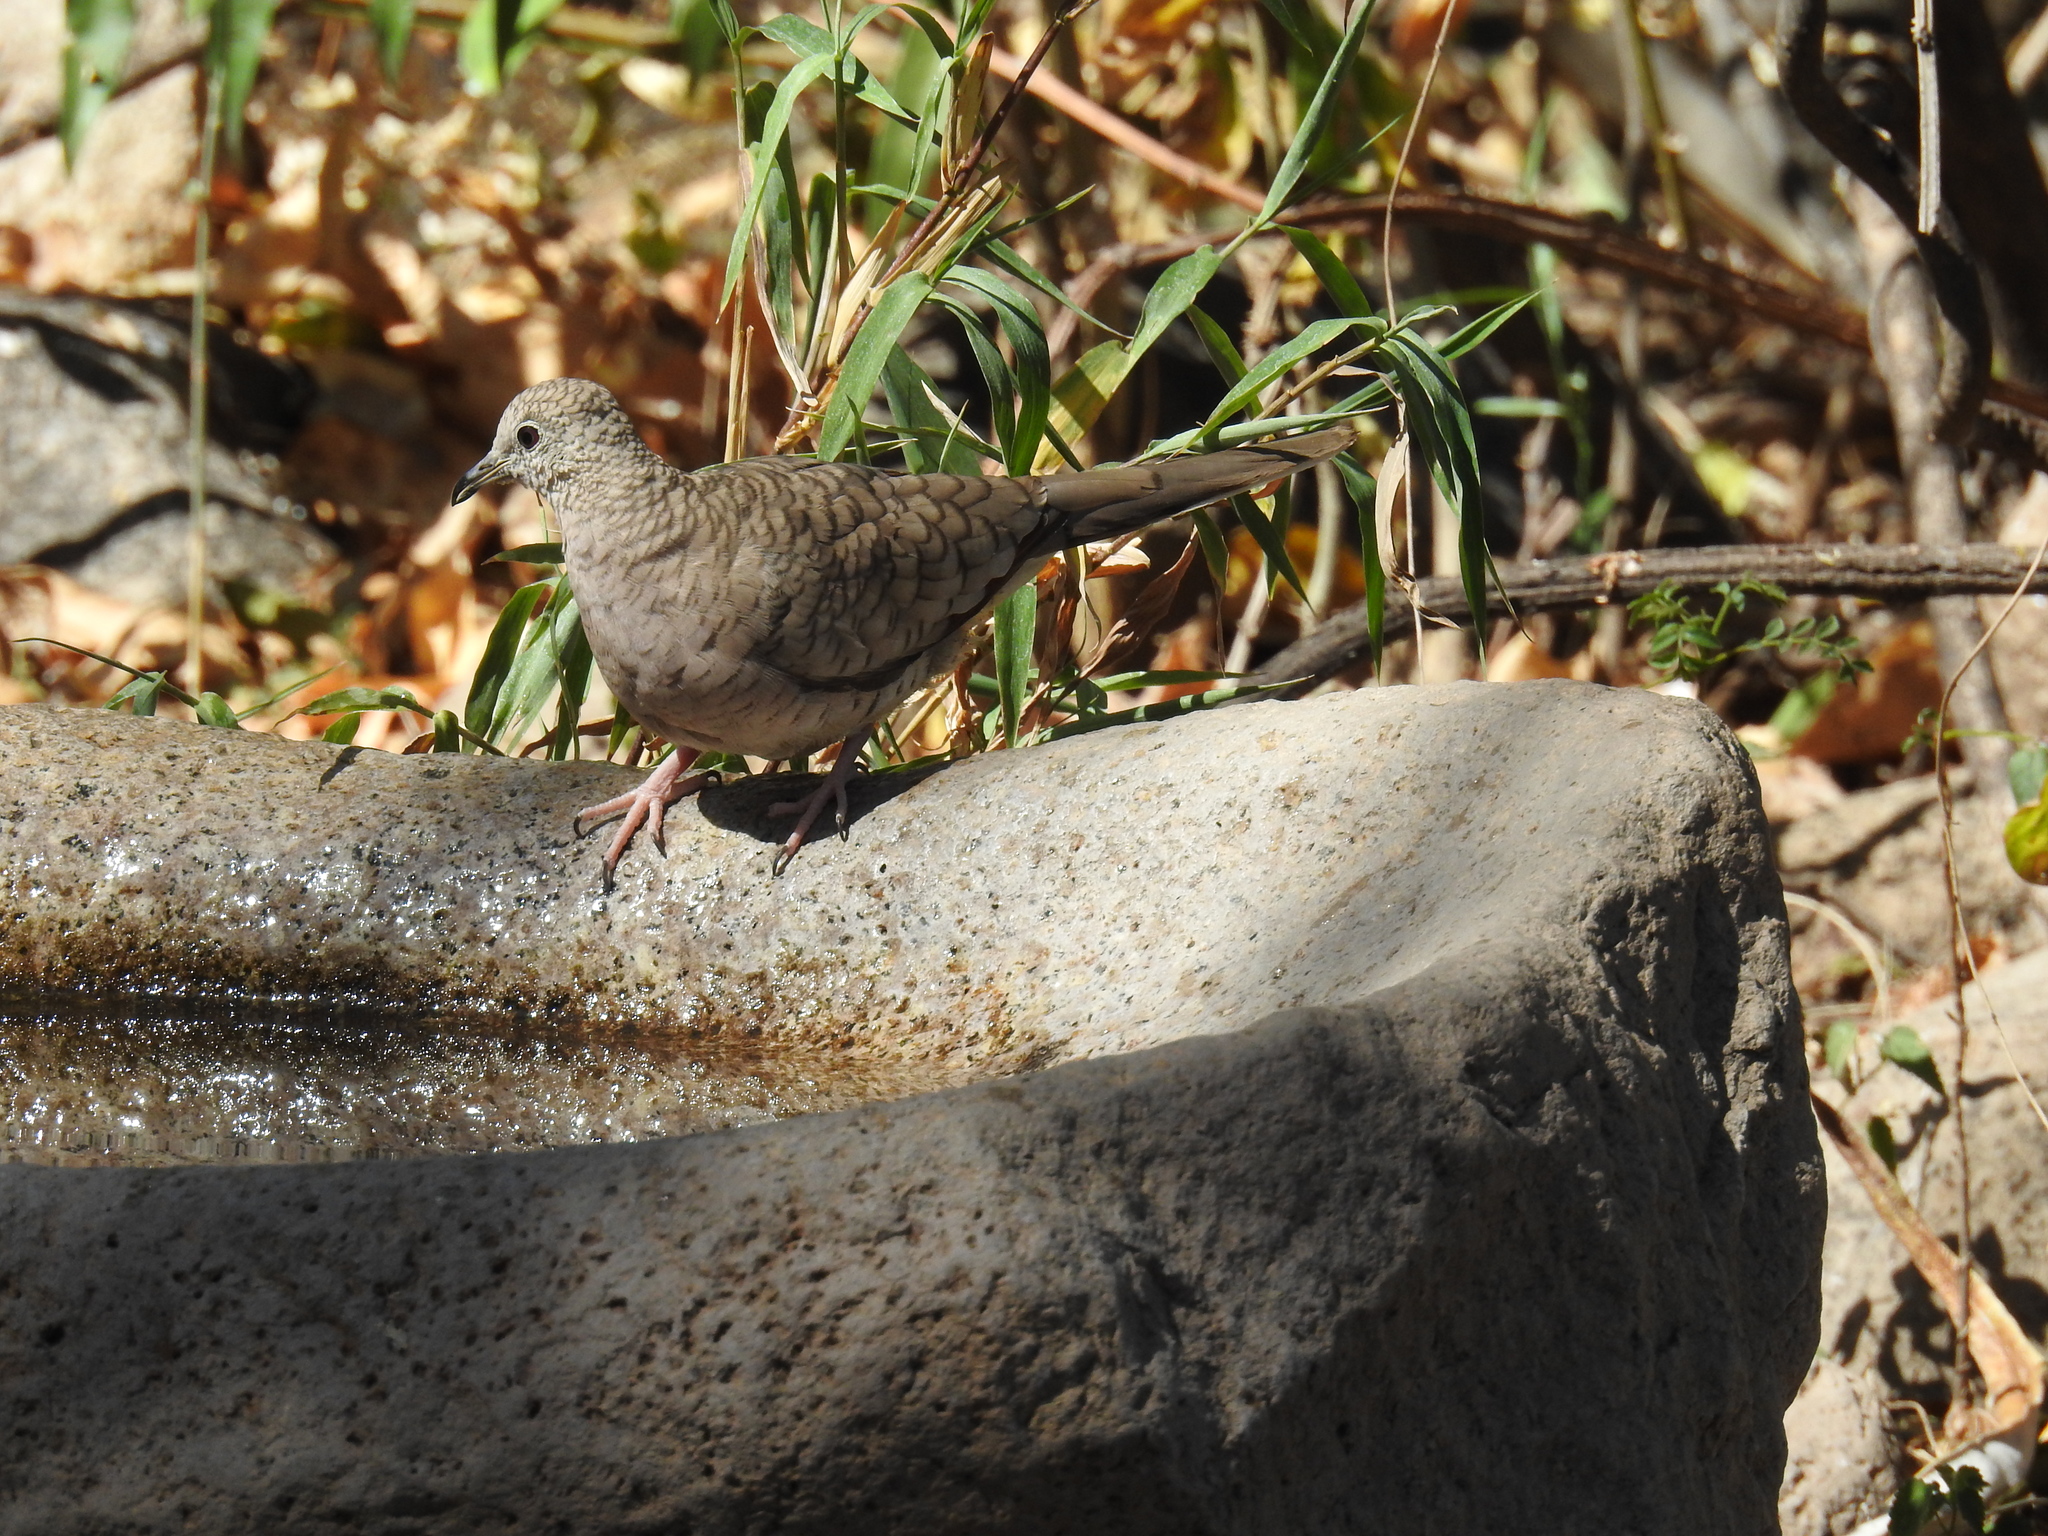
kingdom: Animalia
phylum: Chordata
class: Aves
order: Columbiformes
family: Columbidae
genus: Columbina
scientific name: Columbina inca
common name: Inca dove
